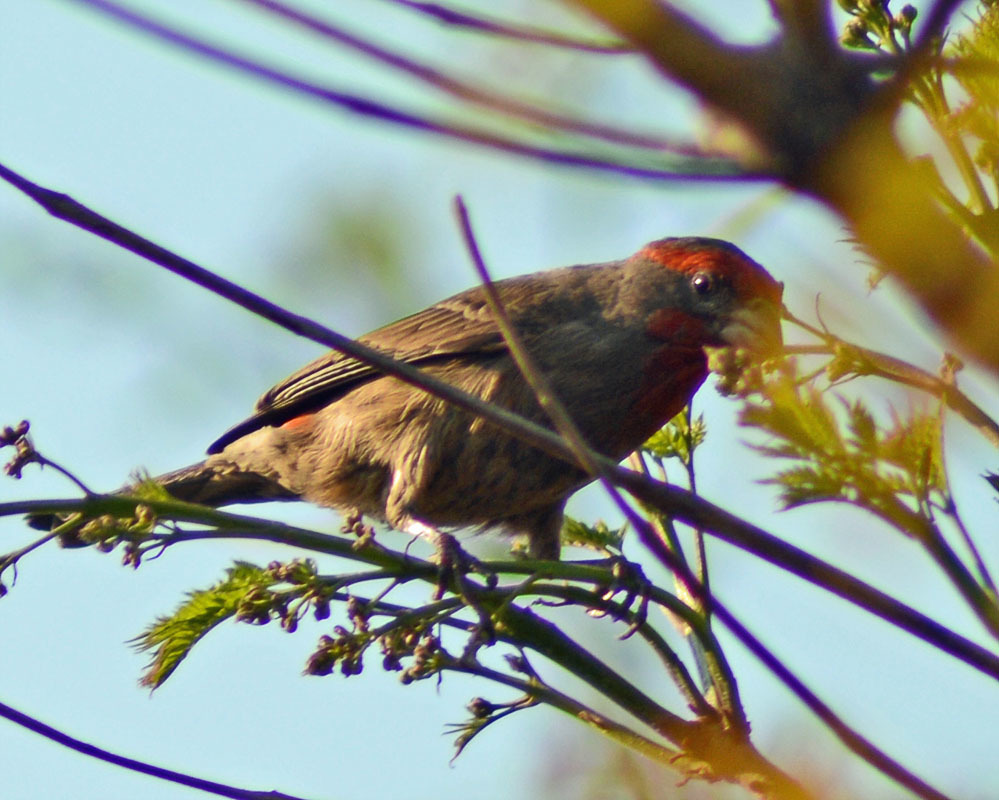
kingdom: Animalia
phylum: Chordata
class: Aves
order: Passeriformes
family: Fringillidae
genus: Haemorhous
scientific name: Haemorhous mexicanus
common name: House finch
